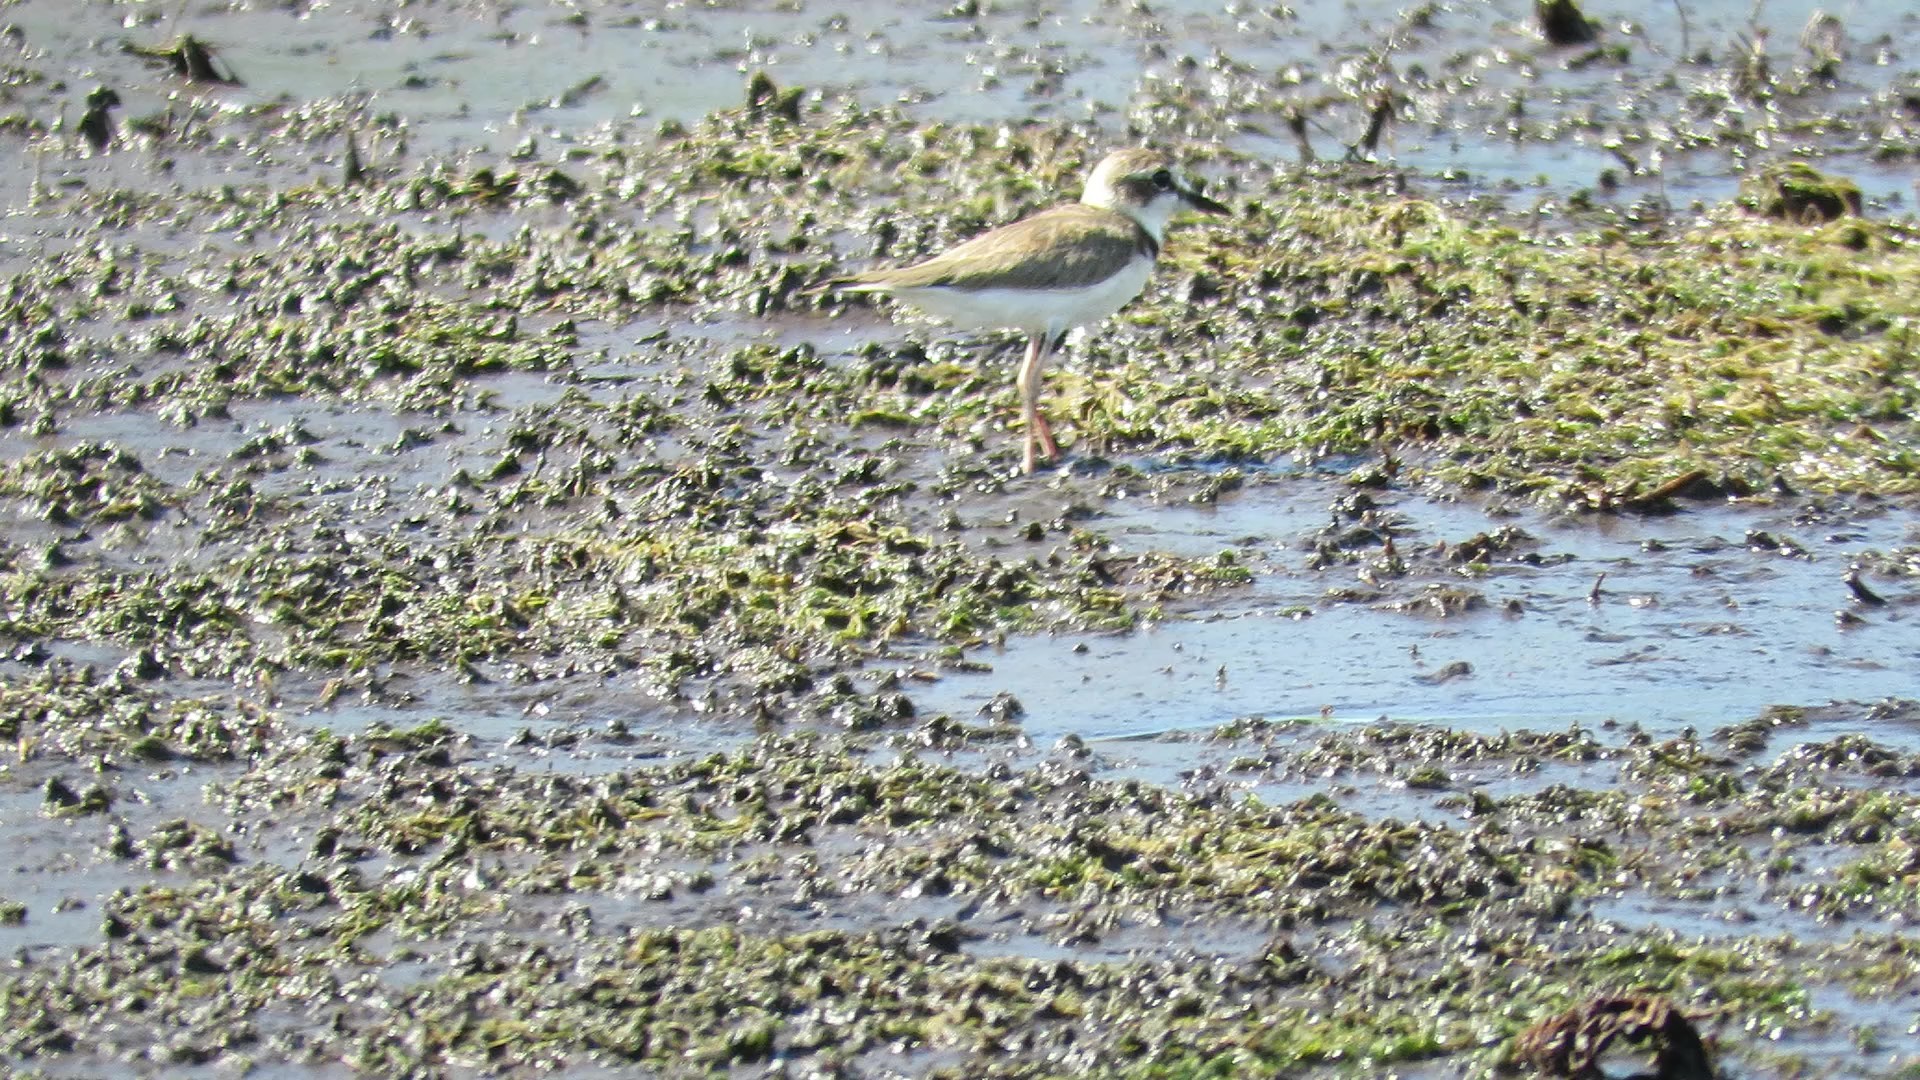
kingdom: Animalia
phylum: Chordata
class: Aves
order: Charadriiformes
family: Charadriidae
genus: Anarhynchus
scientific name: Anarhynchus
